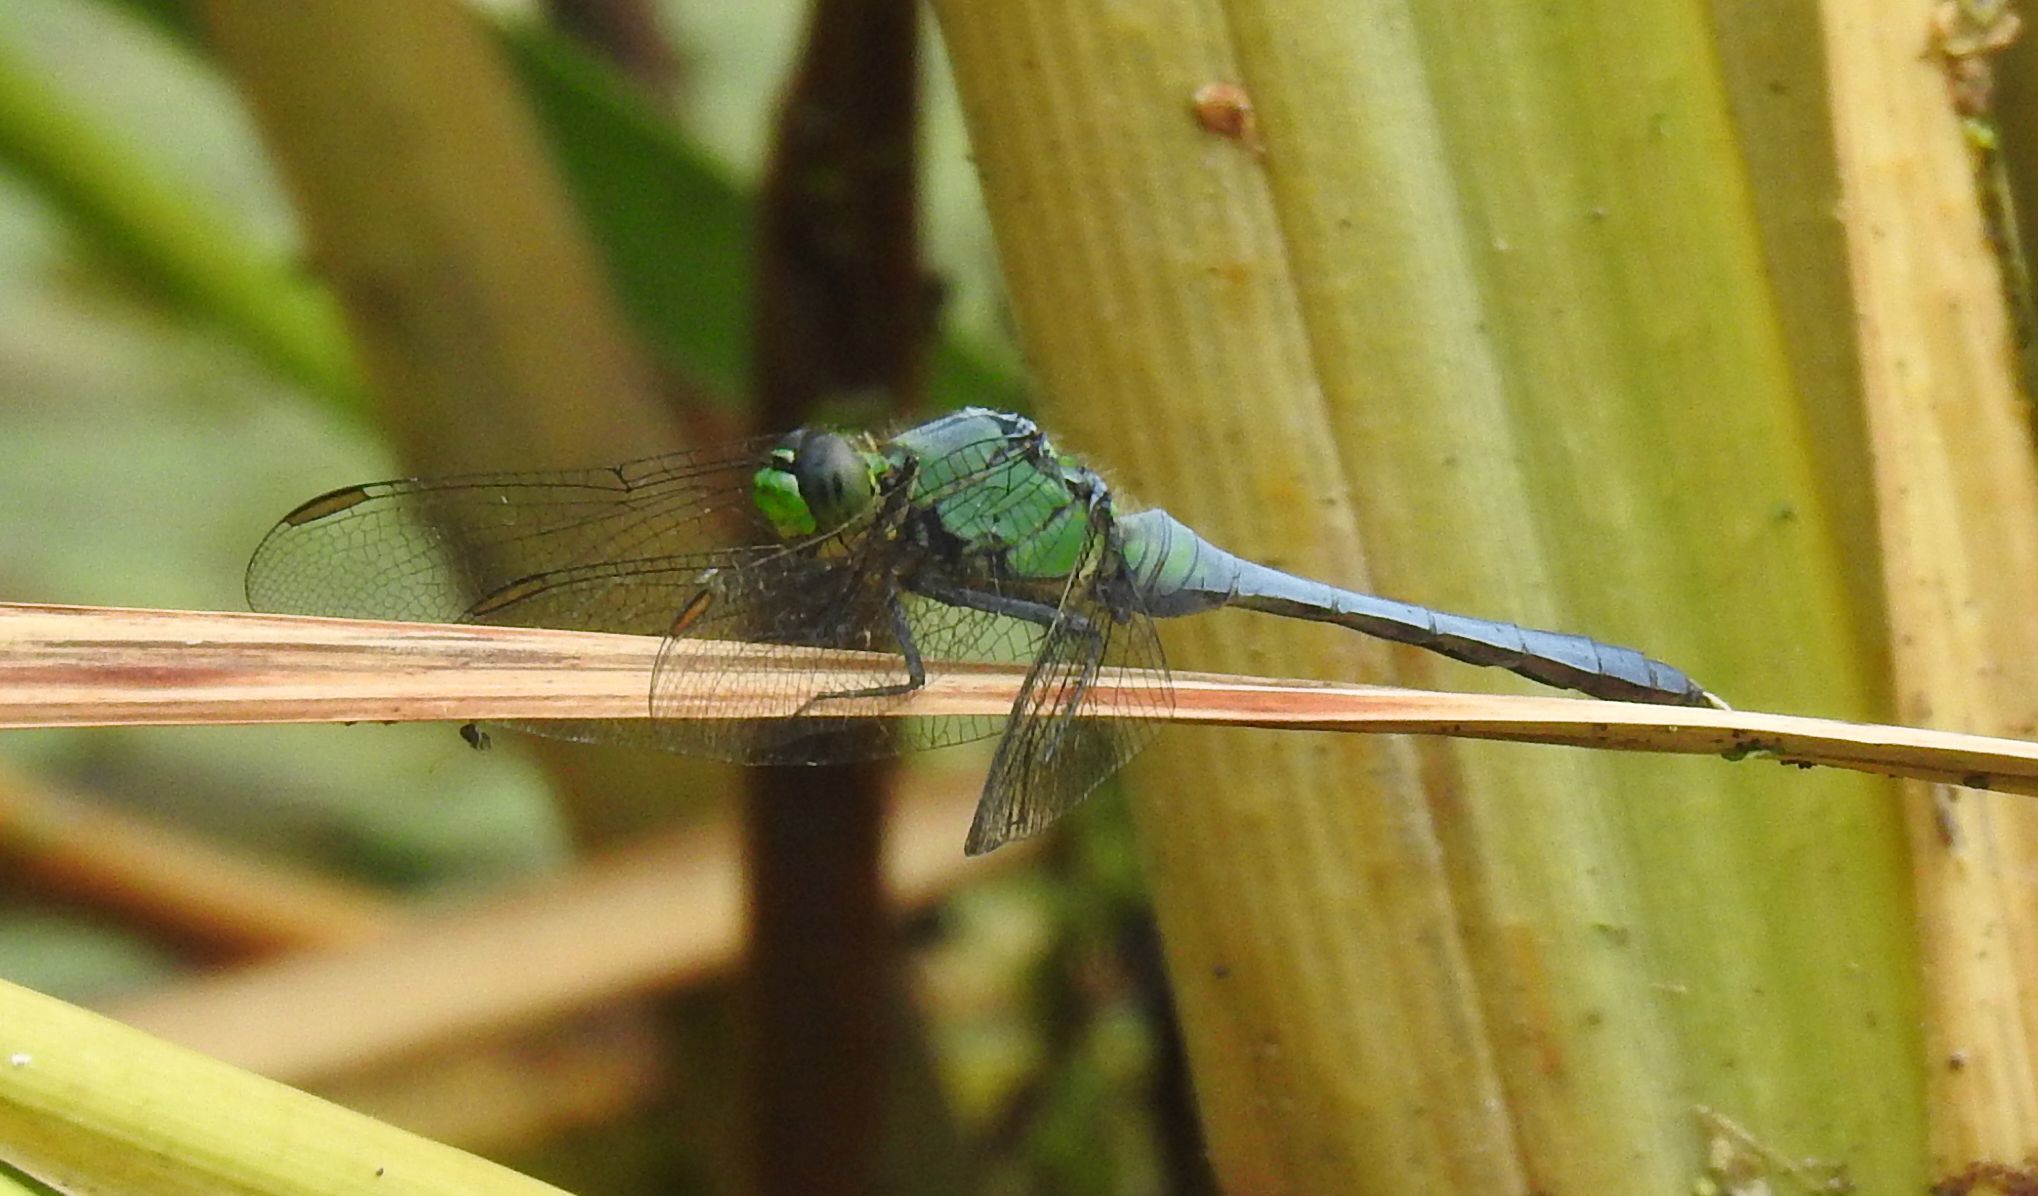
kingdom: Animalia
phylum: Arthropoda
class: Insecta
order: Odonata
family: Libellulidae
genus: Erythemis
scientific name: Erythemis simplicicollis
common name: Eastern pondhawk
